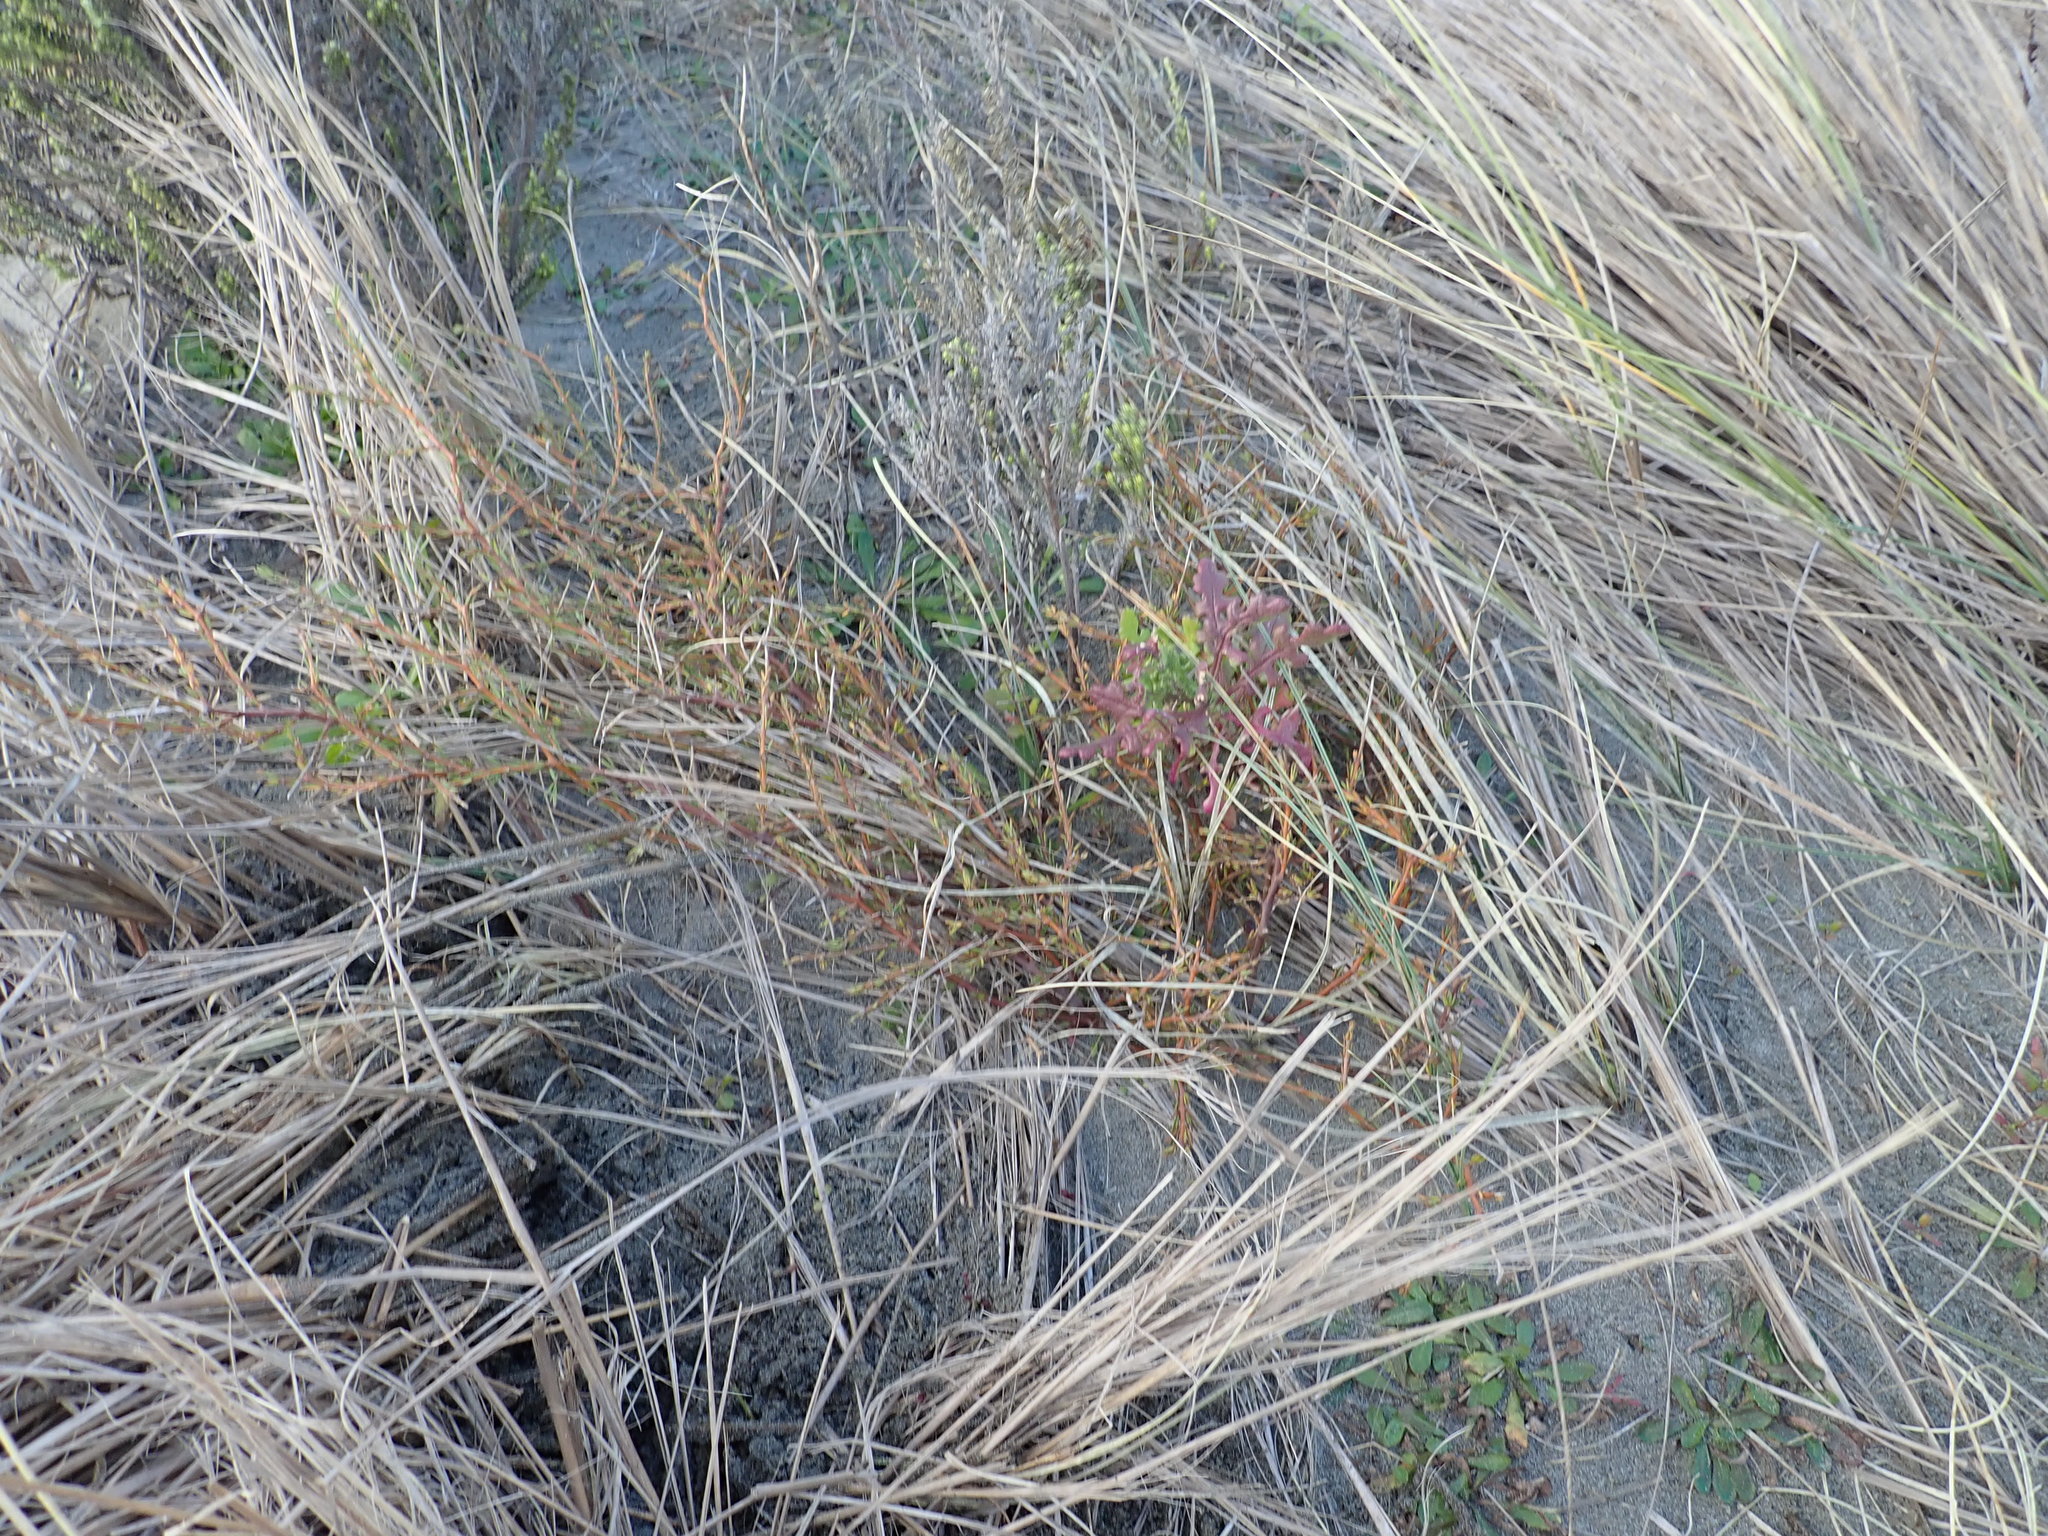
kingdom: Plantae
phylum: Tracheophyta
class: Magnoliopsida
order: Gentianales
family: Rubiaceae
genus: Coprosma
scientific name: Coprosma acerosa
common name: Sand coprosma
